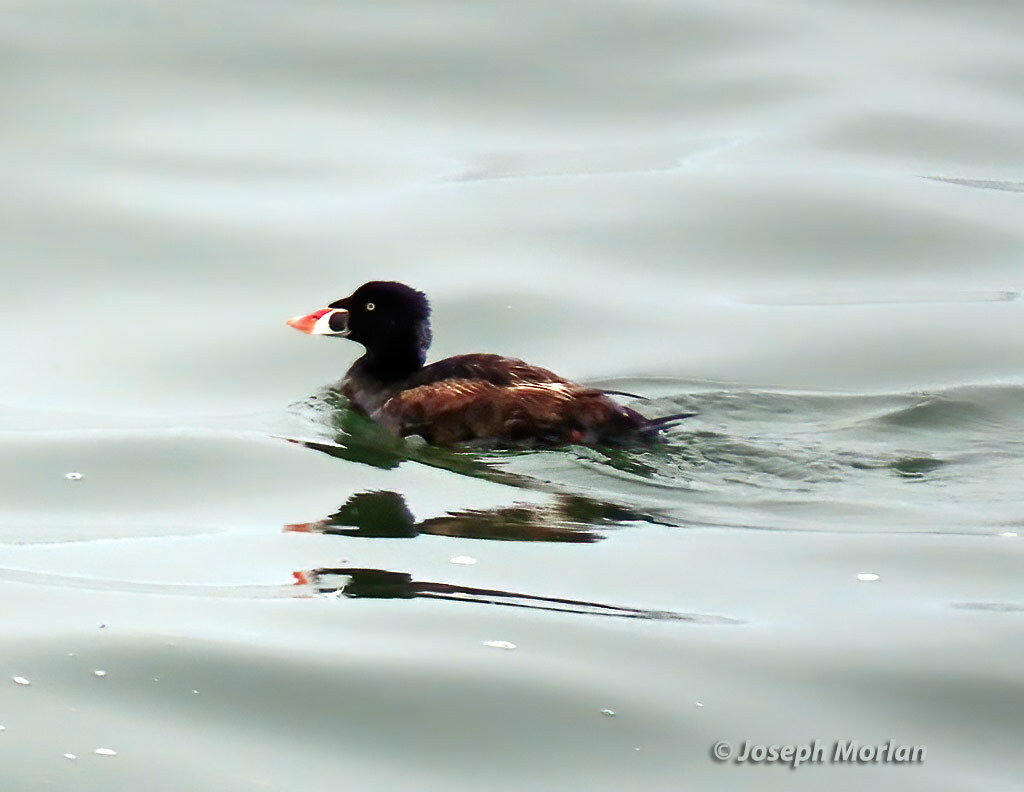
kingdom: Animalia
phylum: Chordata
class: Aves
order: Anseriformes
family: Anatidae
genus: Melanitta
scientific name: Melanitta perspicillata
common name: Surf scoter
